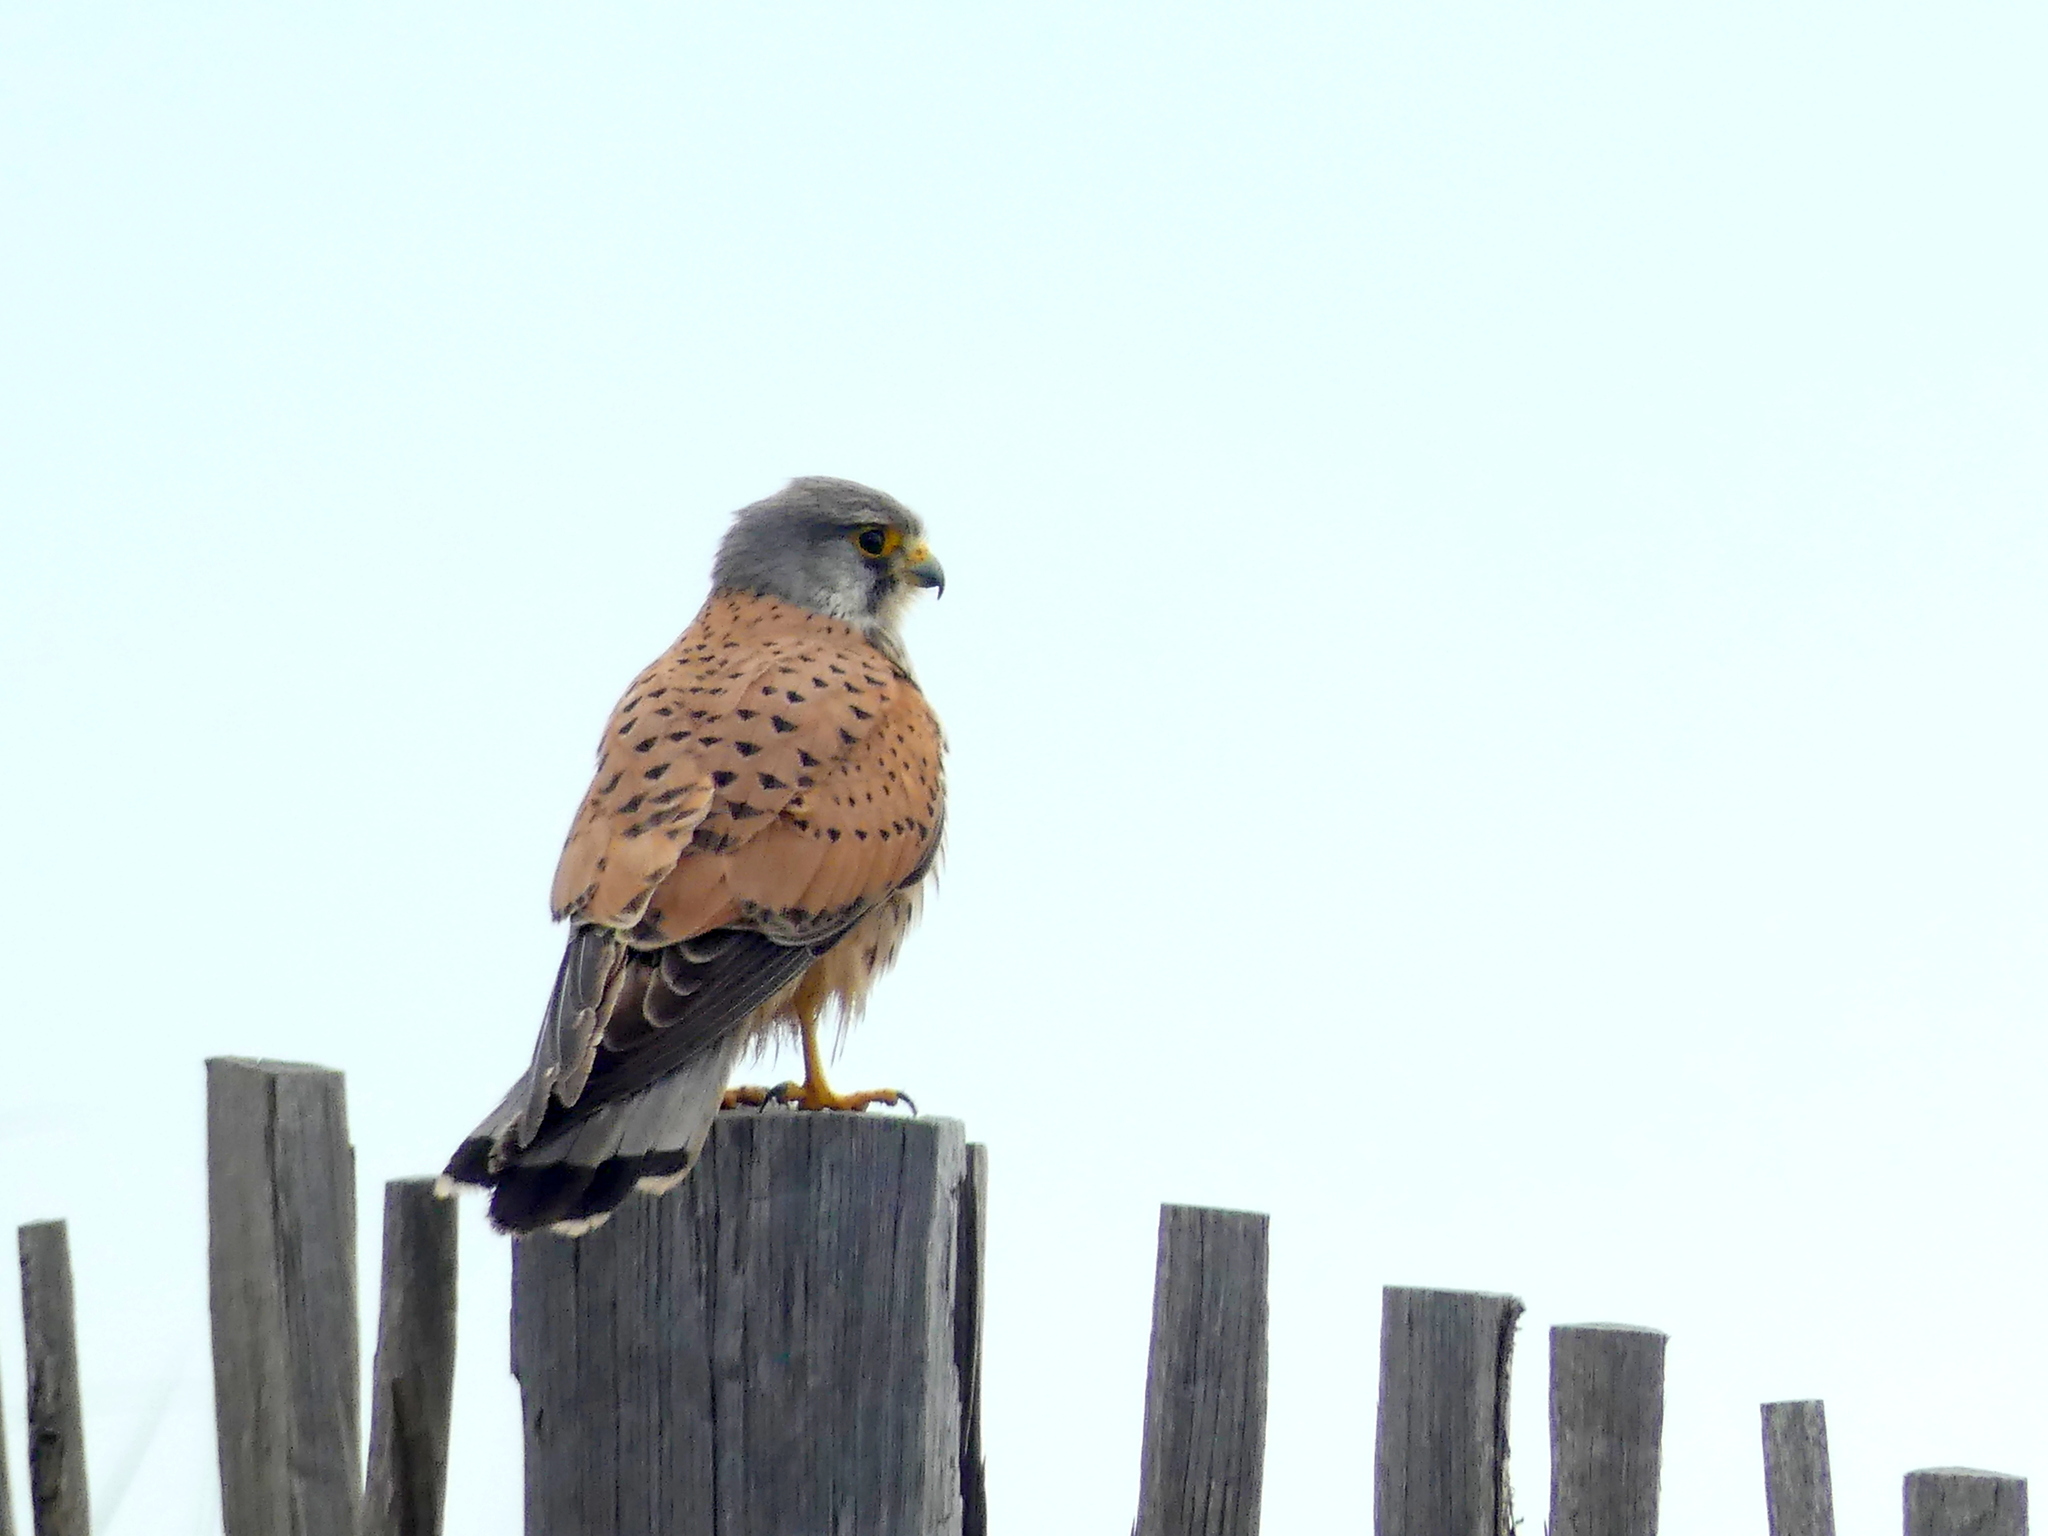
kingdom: Animalia
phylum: Chordata
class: Aves
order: Falconiformes
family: Falconidae
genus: Falco
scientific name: Falco tinnunculus
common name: Common kestrel
